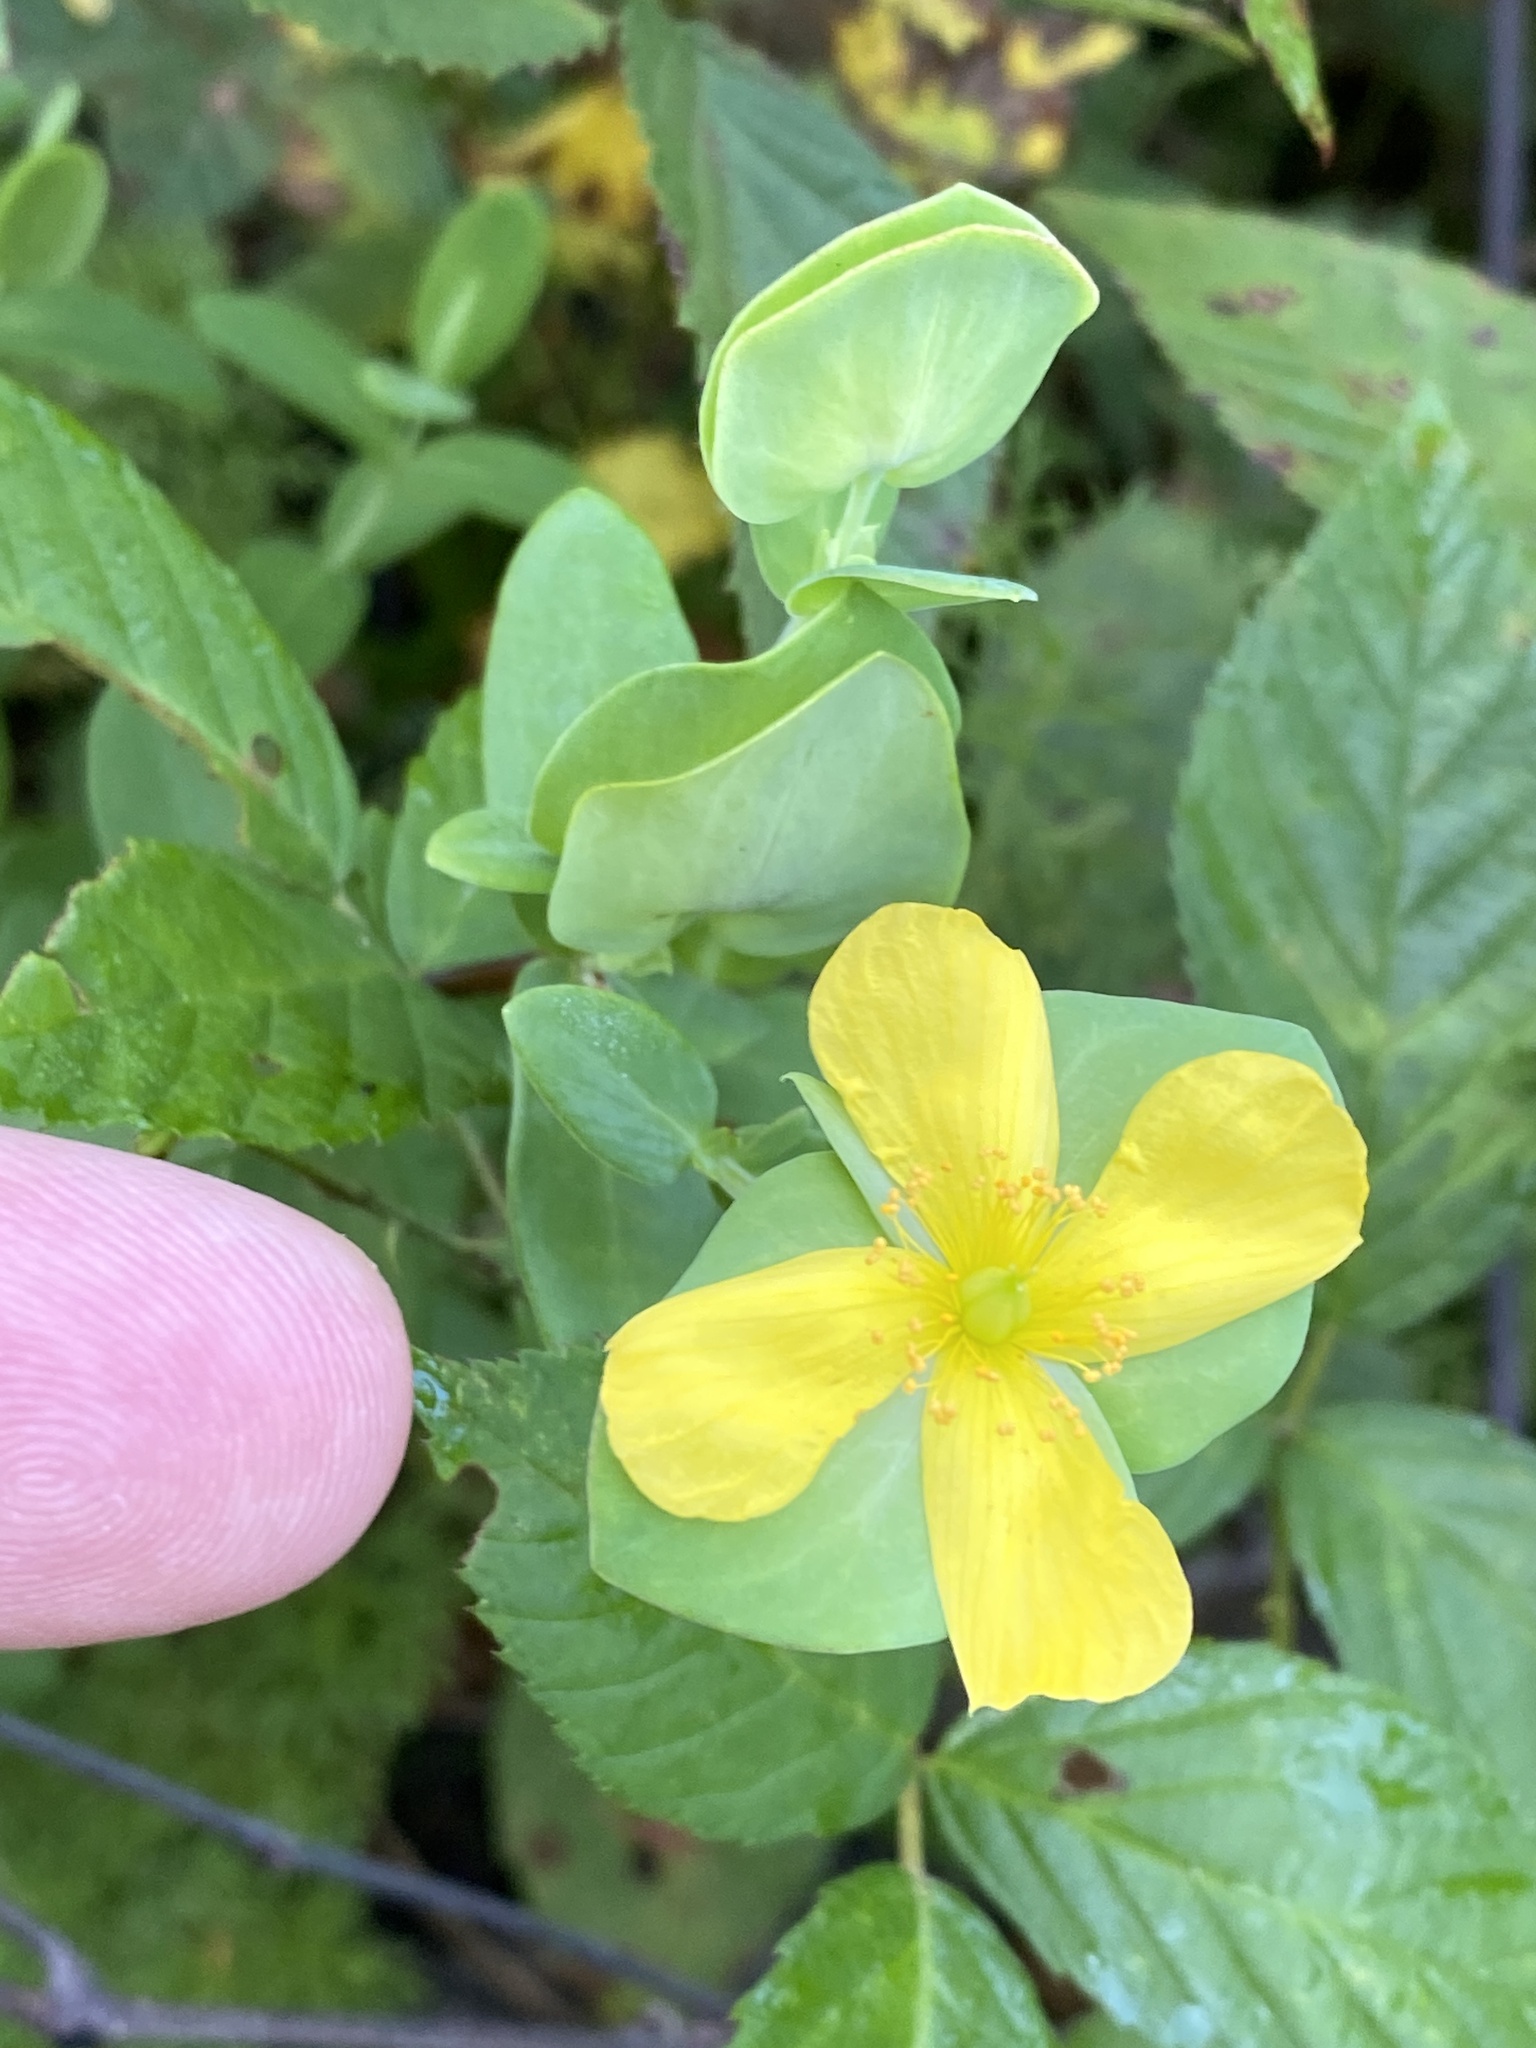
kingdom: Plantae
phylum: Tracheophyta
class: Magnoliopsida
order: Malpighiales
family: Hypericaceae
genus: Hypericum
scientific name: Hypericum crux-andreae
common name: St.-peter's-wort
